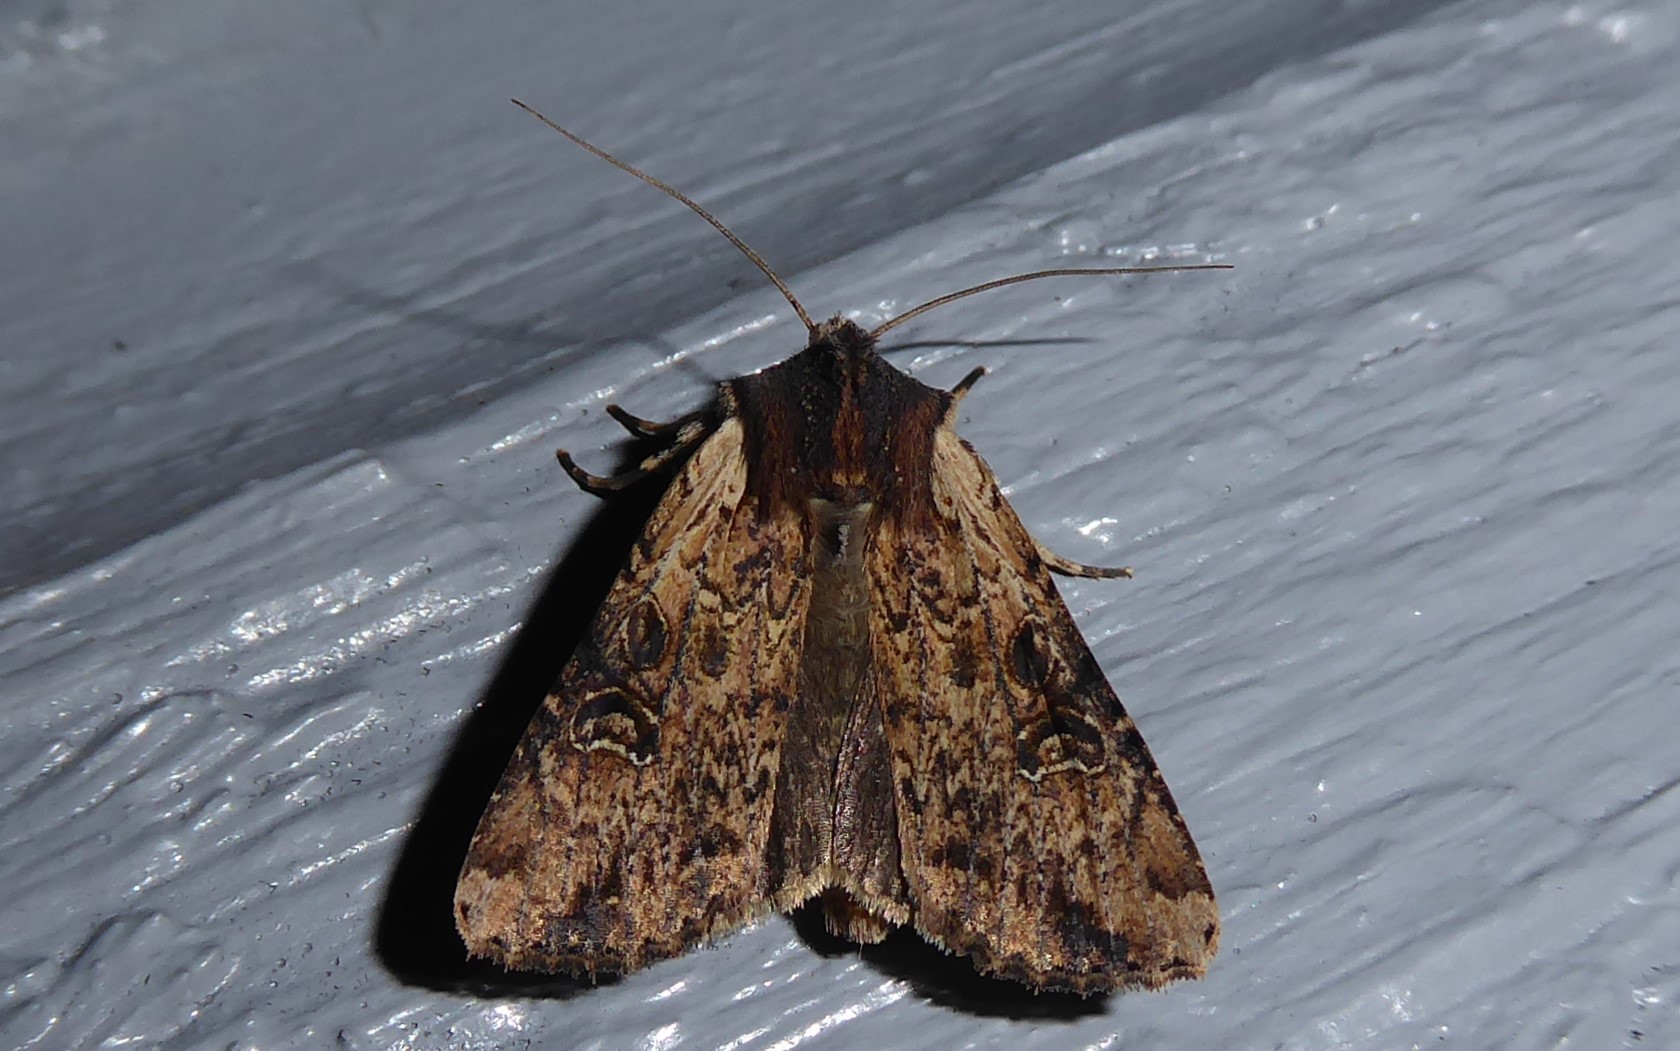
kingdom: Animalia
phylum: Arthropoda
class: Insecta
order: Lepidoptera
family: Noctuidae
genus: Ichneutica
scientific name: Ichneutica omoplaca
